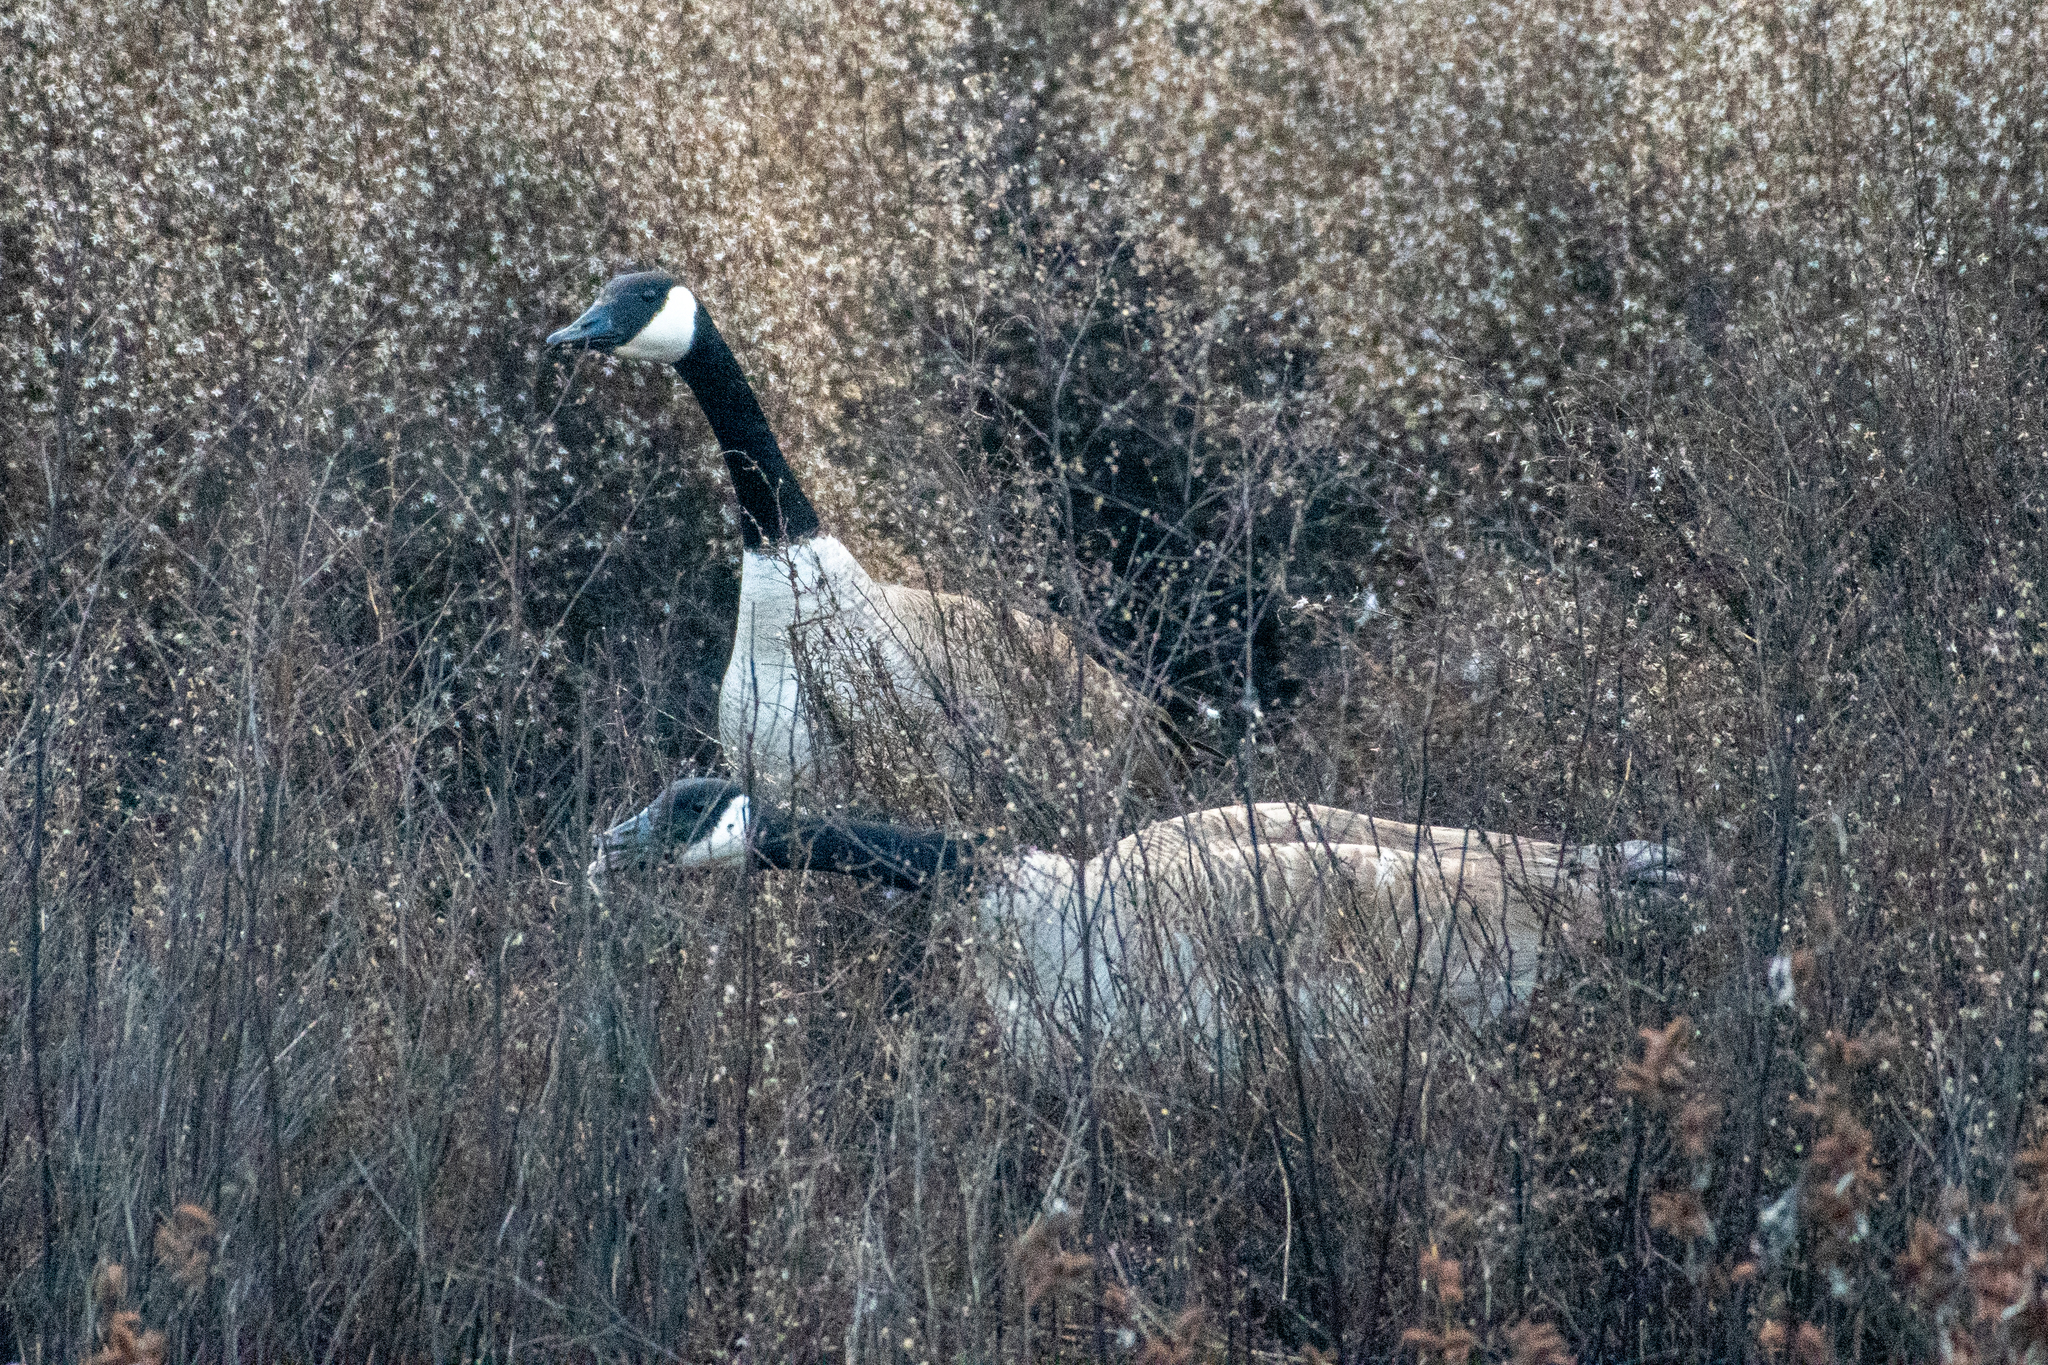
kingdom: Animalia
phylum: Chordata
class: Aves
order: Anseriformes
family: Anatidae
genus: Branta
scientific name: Branta canadensis
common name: Canada goose
